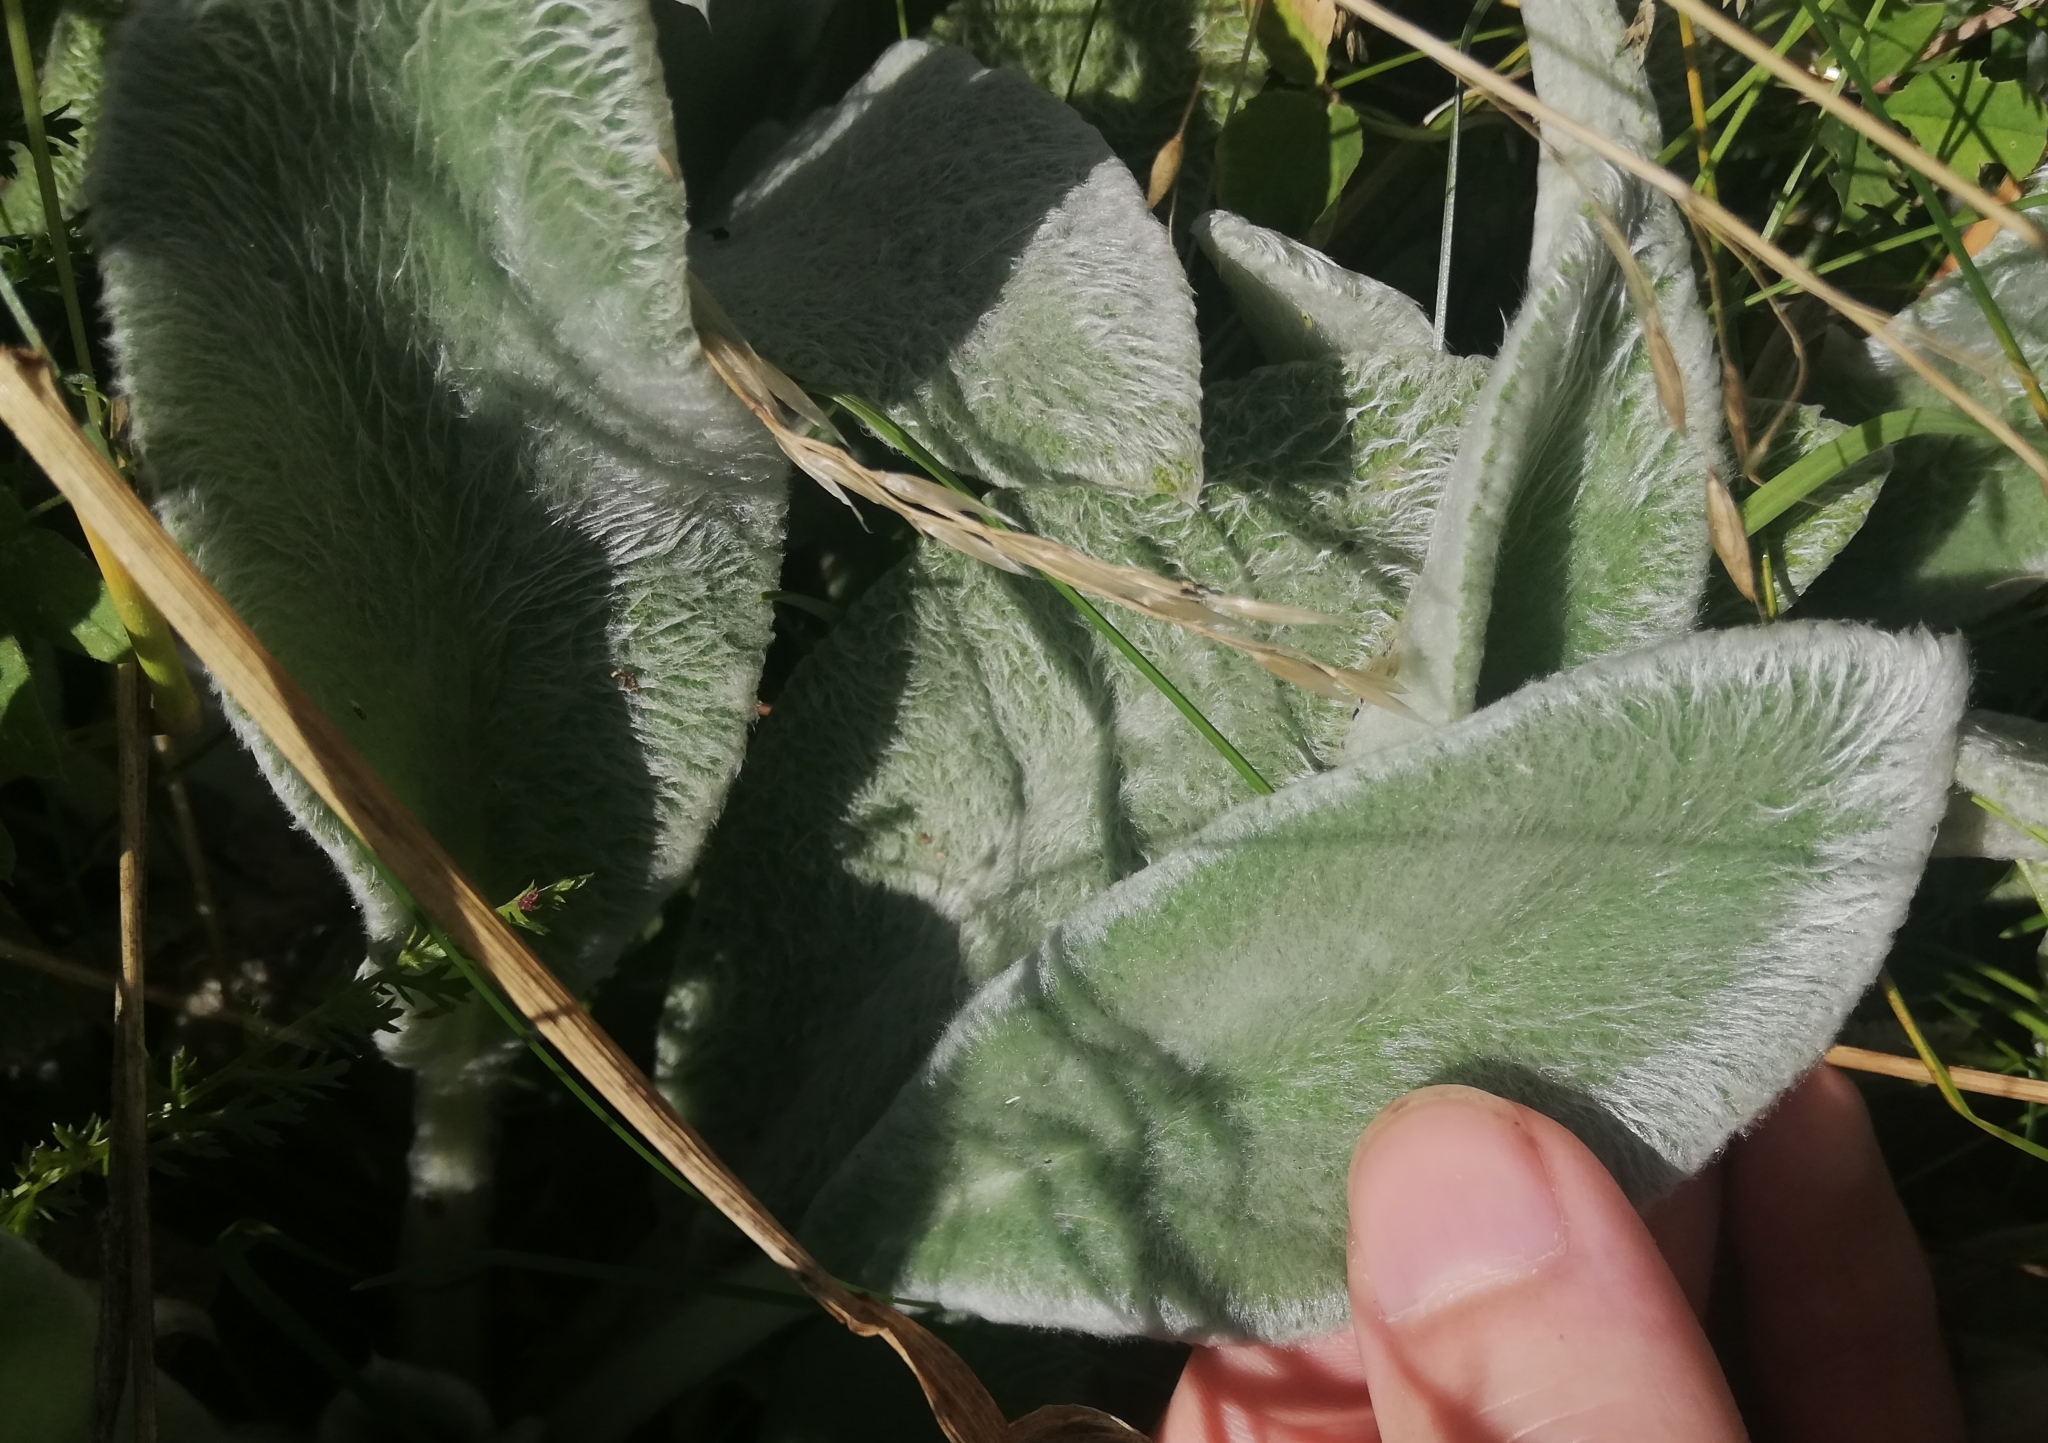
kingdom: Plantae
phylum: Tracheophyta
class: Magnoliopsida
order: Lamiales
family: Lamiaceae
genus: Stachys
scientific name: Stachys byzantina
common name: Lamb's-ear
